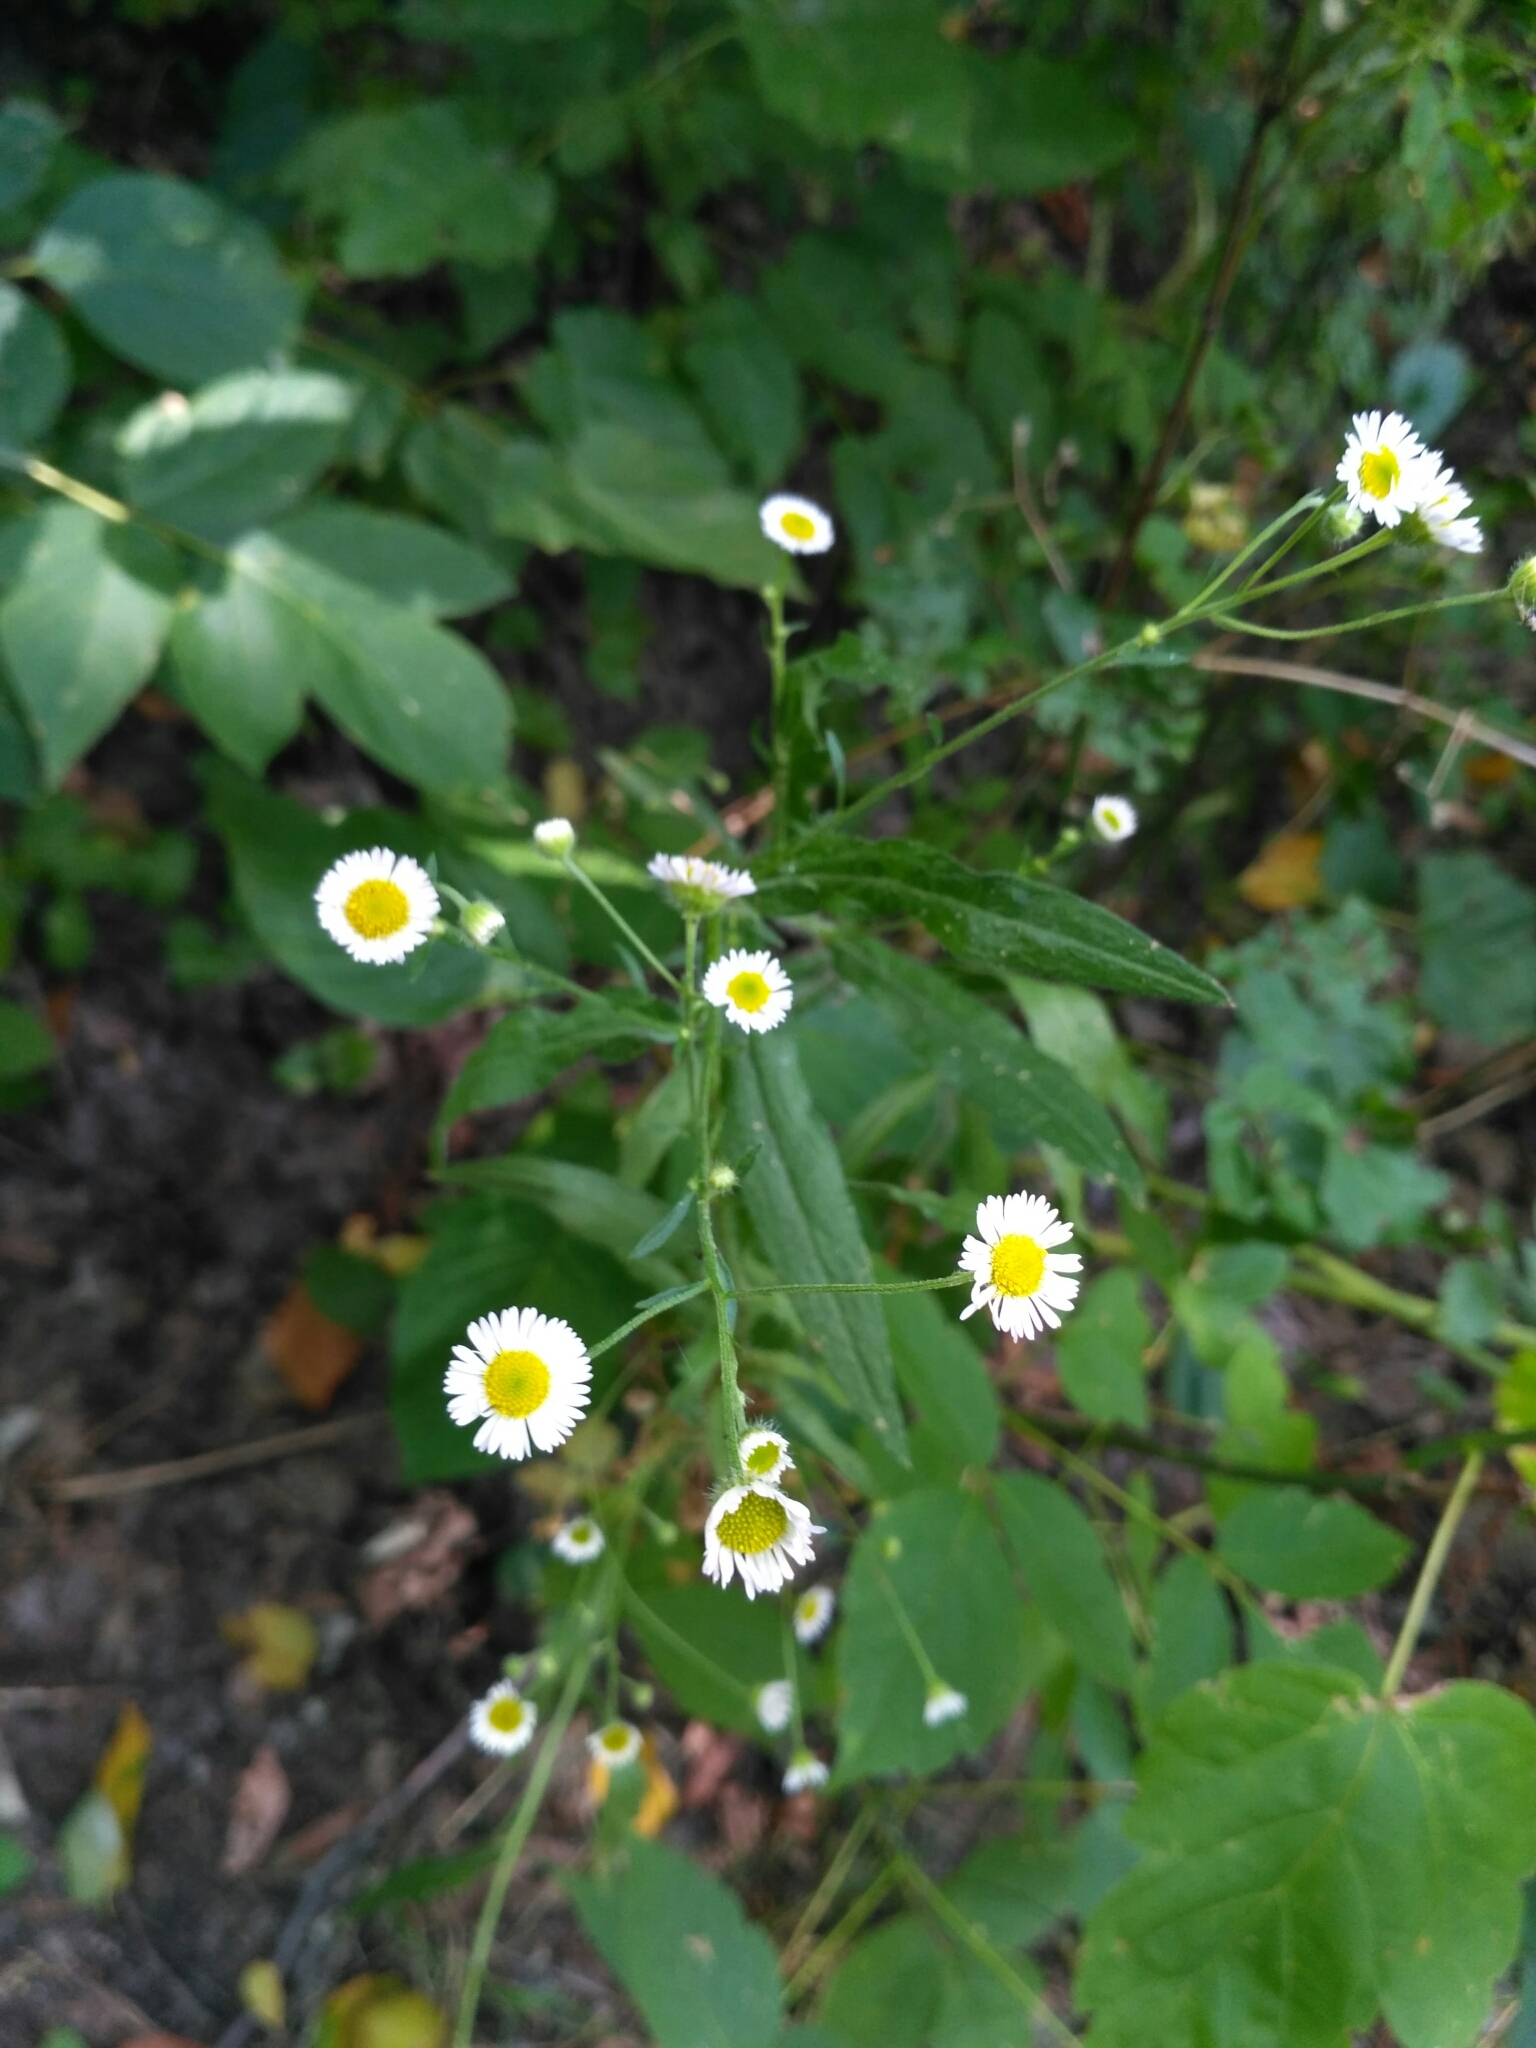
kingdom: Plantae
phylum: Tracheophyta
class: Magnoliopsida
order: Asterales
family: Asteraceae
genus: Erigeron
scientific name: Erigeron annuus
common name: Tall fleabane
